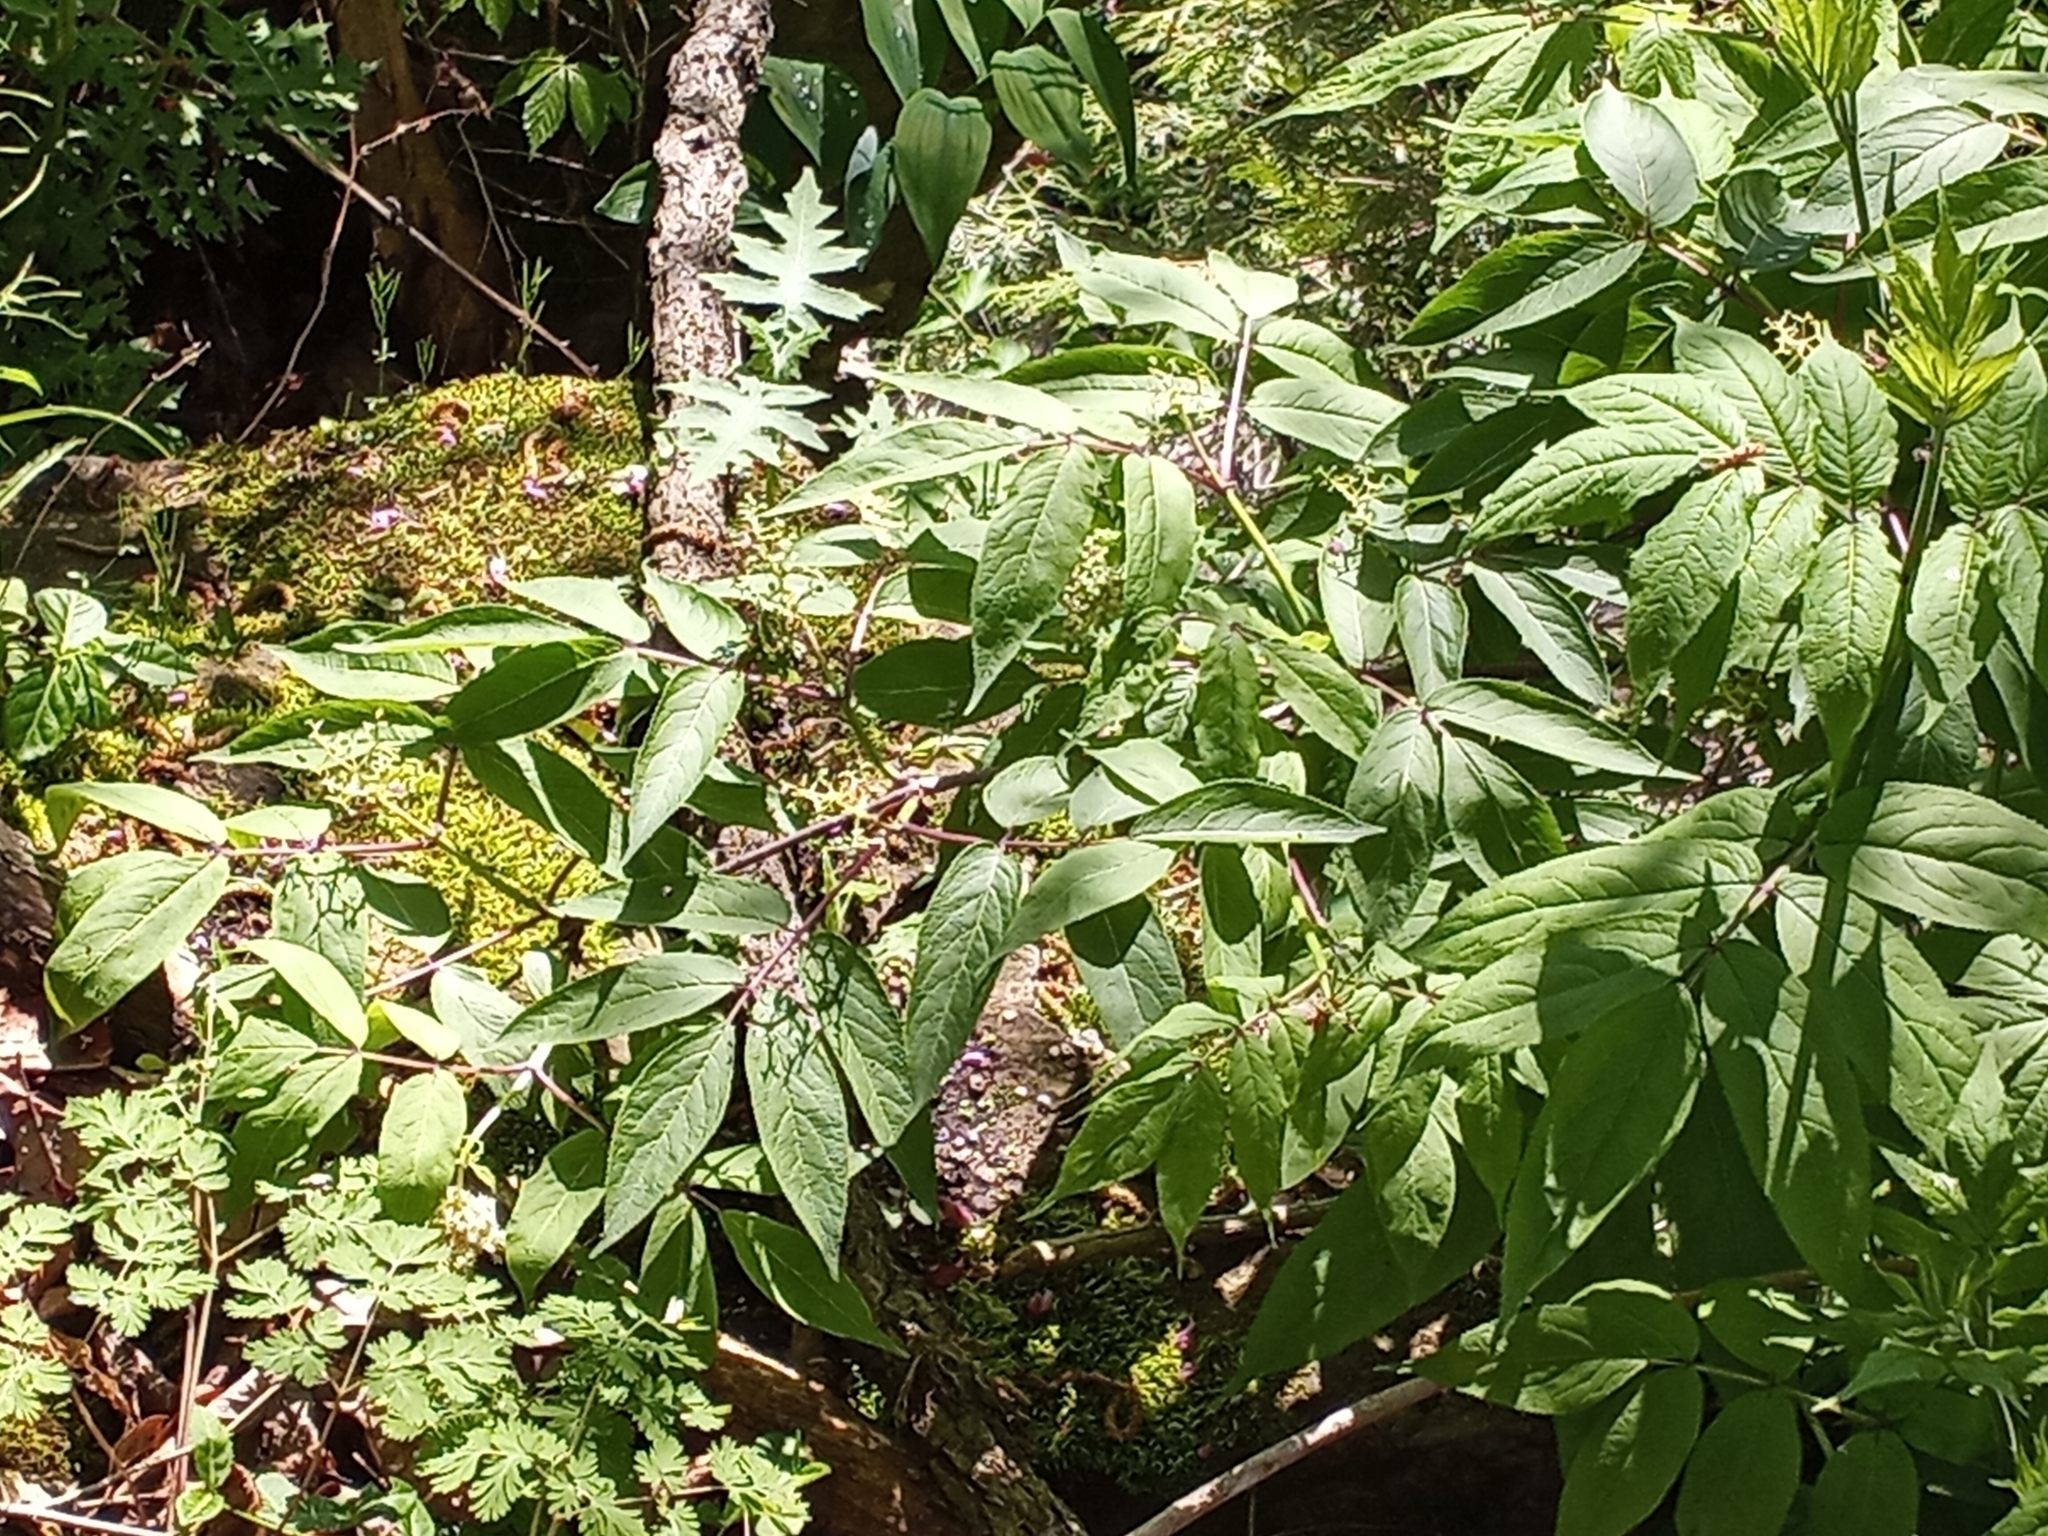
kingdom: Plantae
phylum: Tracheophyta
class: Magnoliopsida
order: Dipsacales
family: Viburnaceae
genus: Sambucus
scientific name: Sambucus racemosa
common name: Red-berried elder
